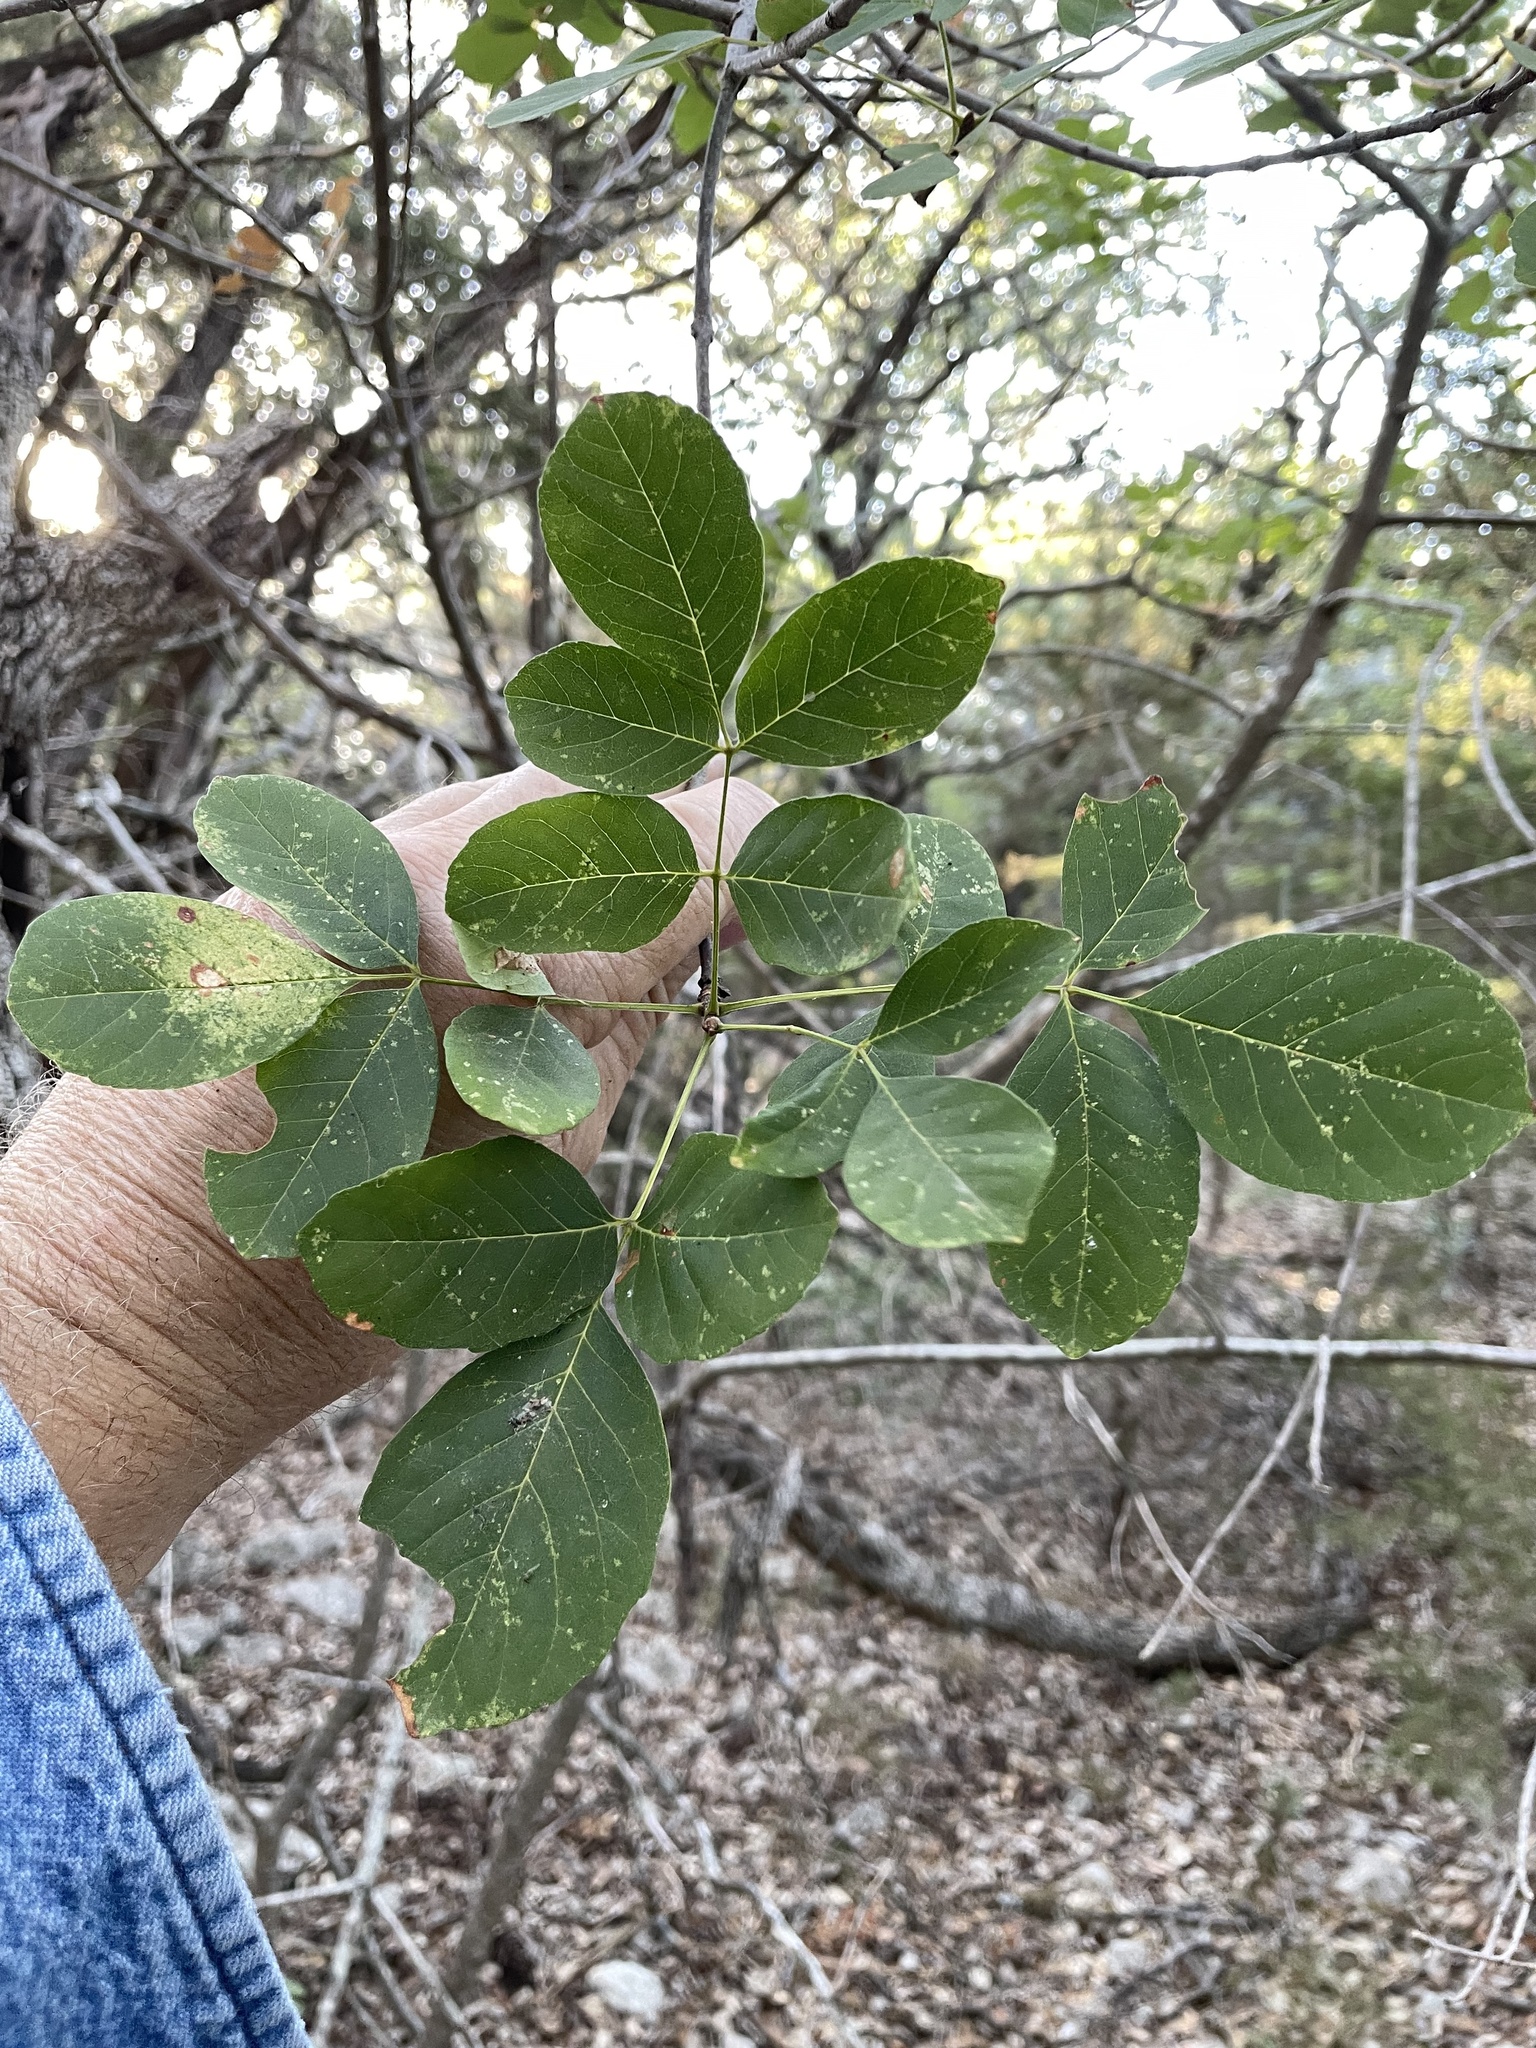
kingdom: Plantae
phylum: Tracheophyta
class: Magnoliopsida
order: Lamiales
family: Oleaceae
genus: Fraxinus
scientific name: Fraxinus albicans
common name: Texas ash
